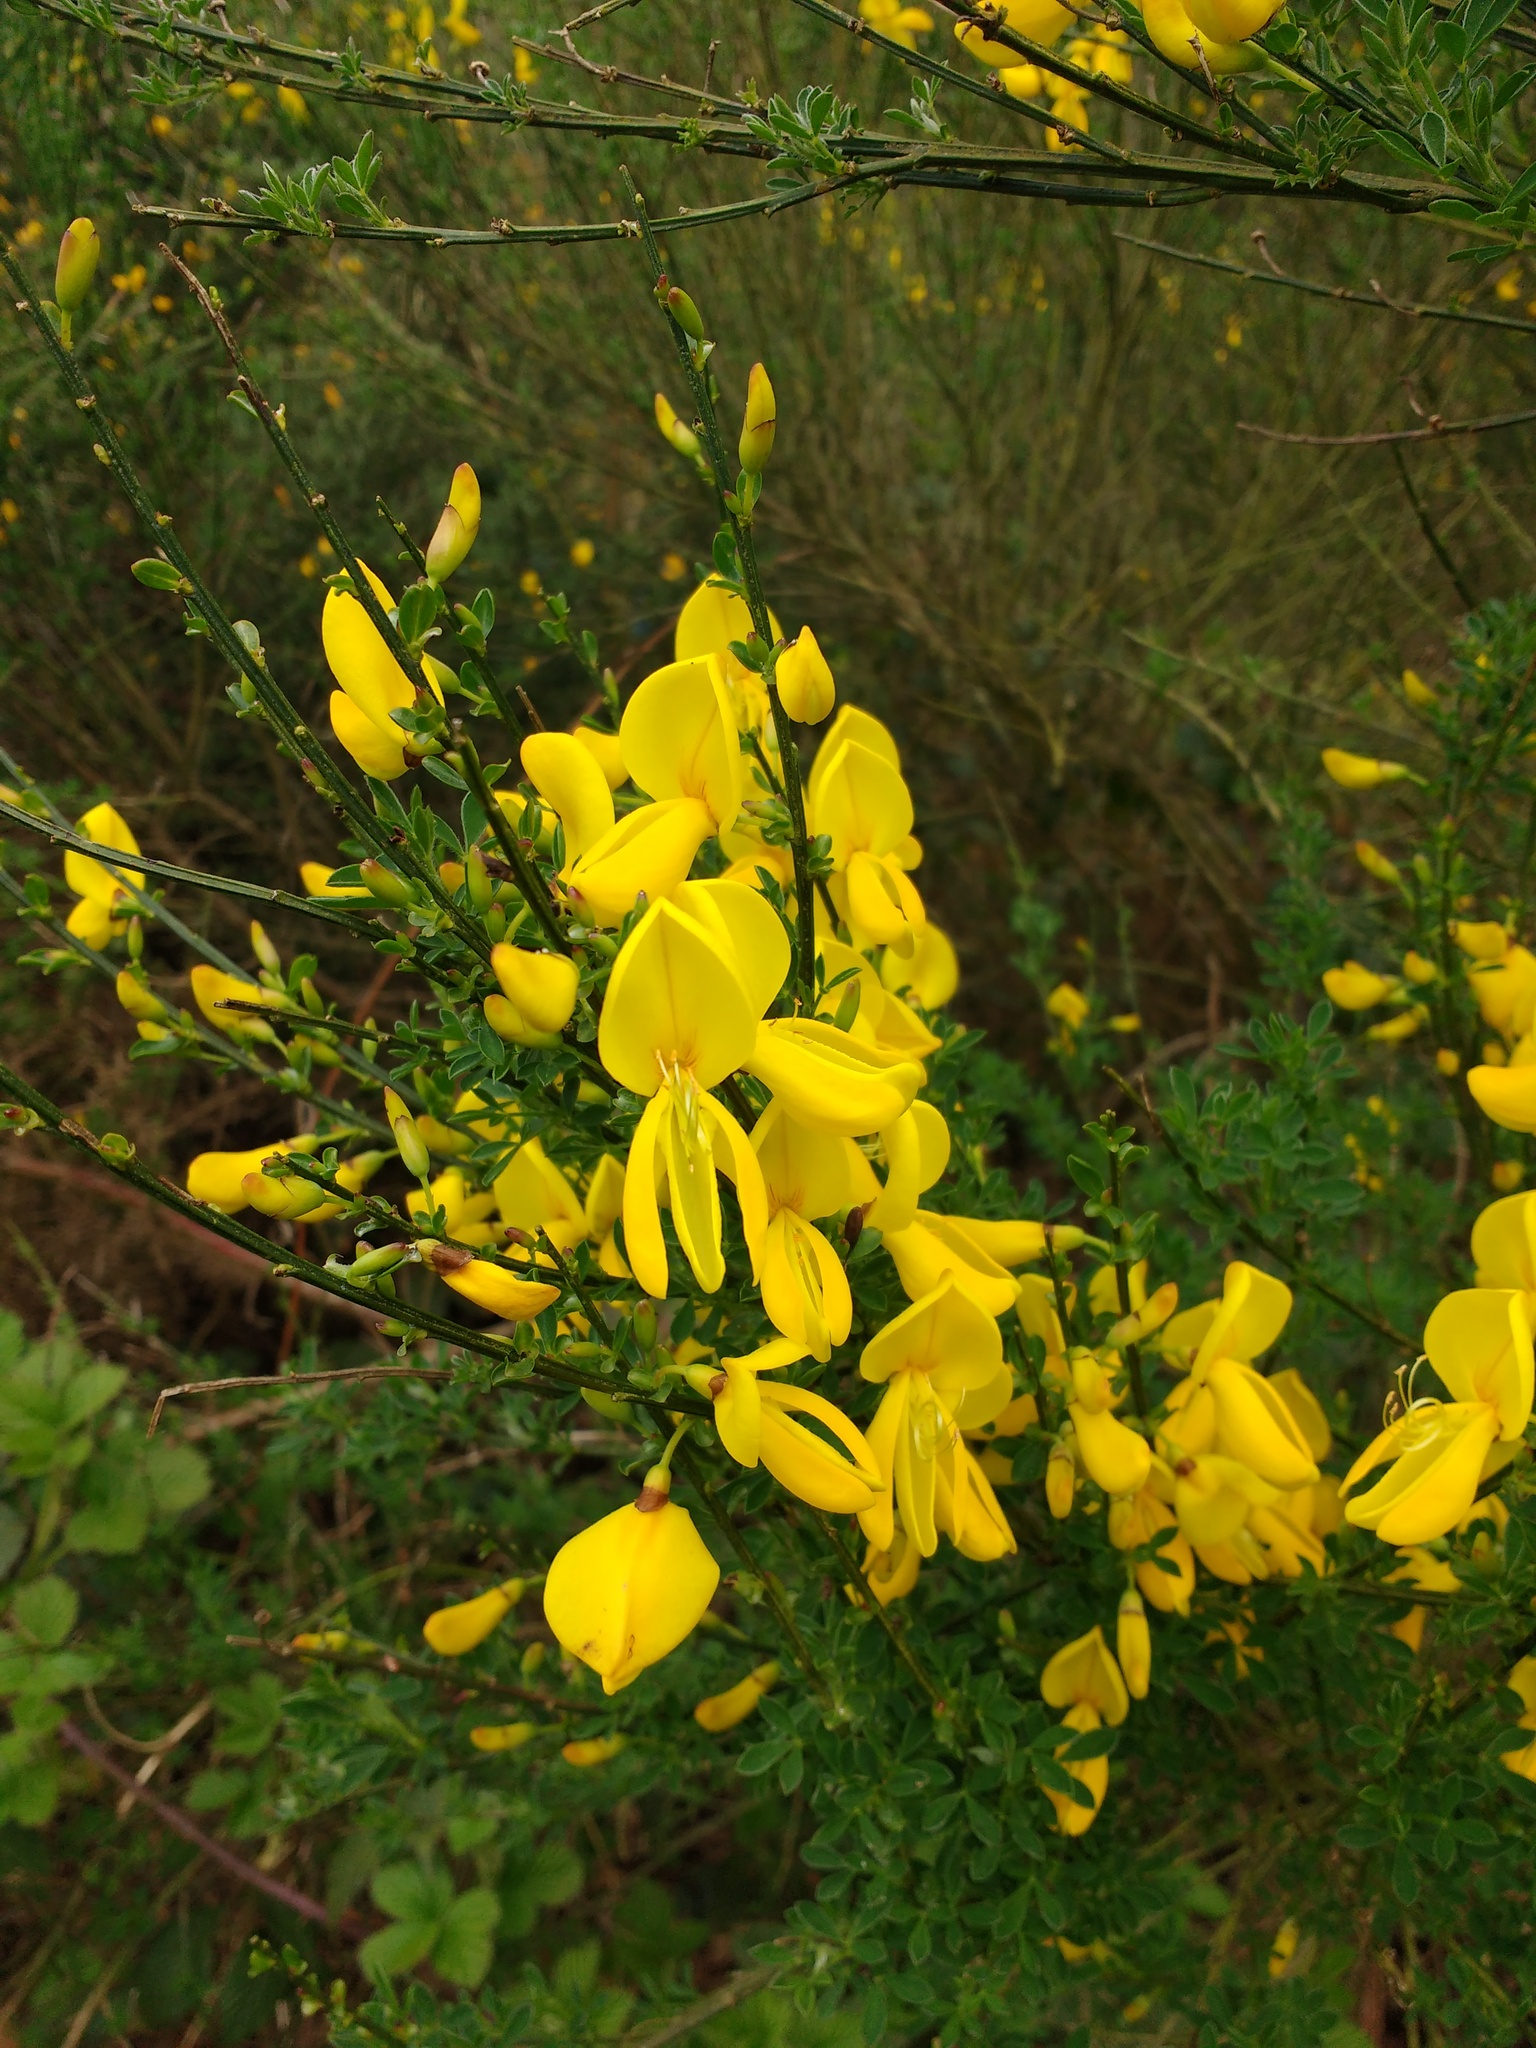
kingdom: Plantae
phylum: Tracheophyta
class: Magnoliopsida
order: Fabales
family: Fabaceae
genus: Cytisus
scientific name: Cytisus scoparius
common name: Scotch broom
